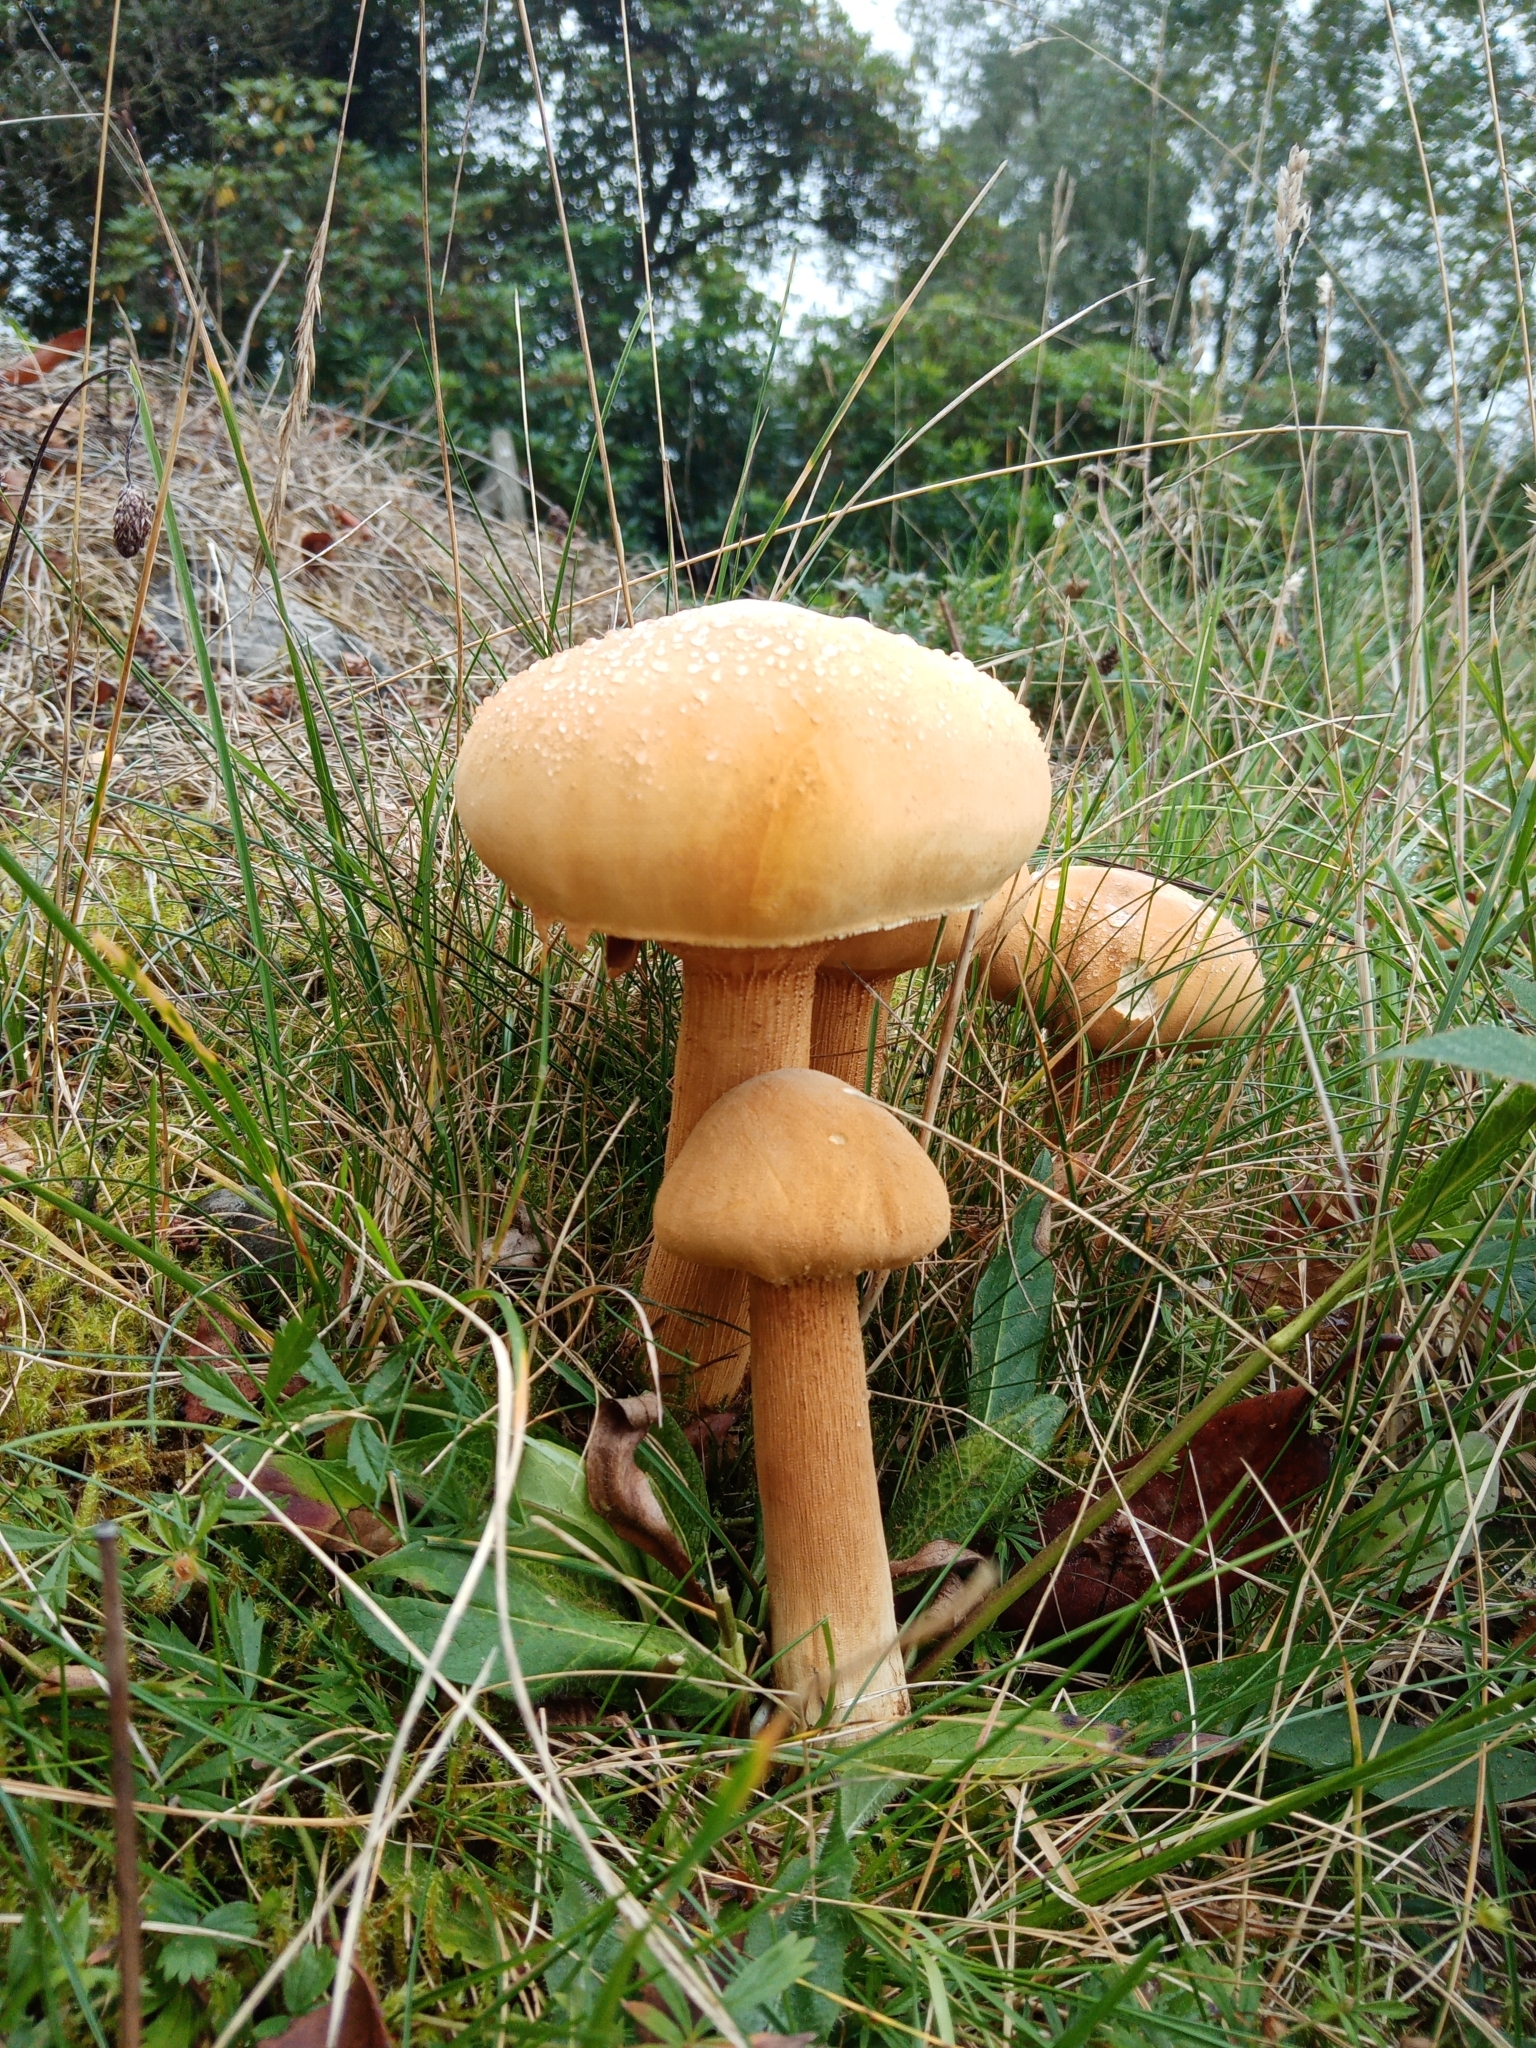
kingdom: Fungi
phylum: Basidiomycota
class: Agaricomycetes
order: Agaricales
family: Tricholomataceae
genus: Phaeolepiota
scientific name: Phaeolepiota aurea
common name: Golden bootleg
